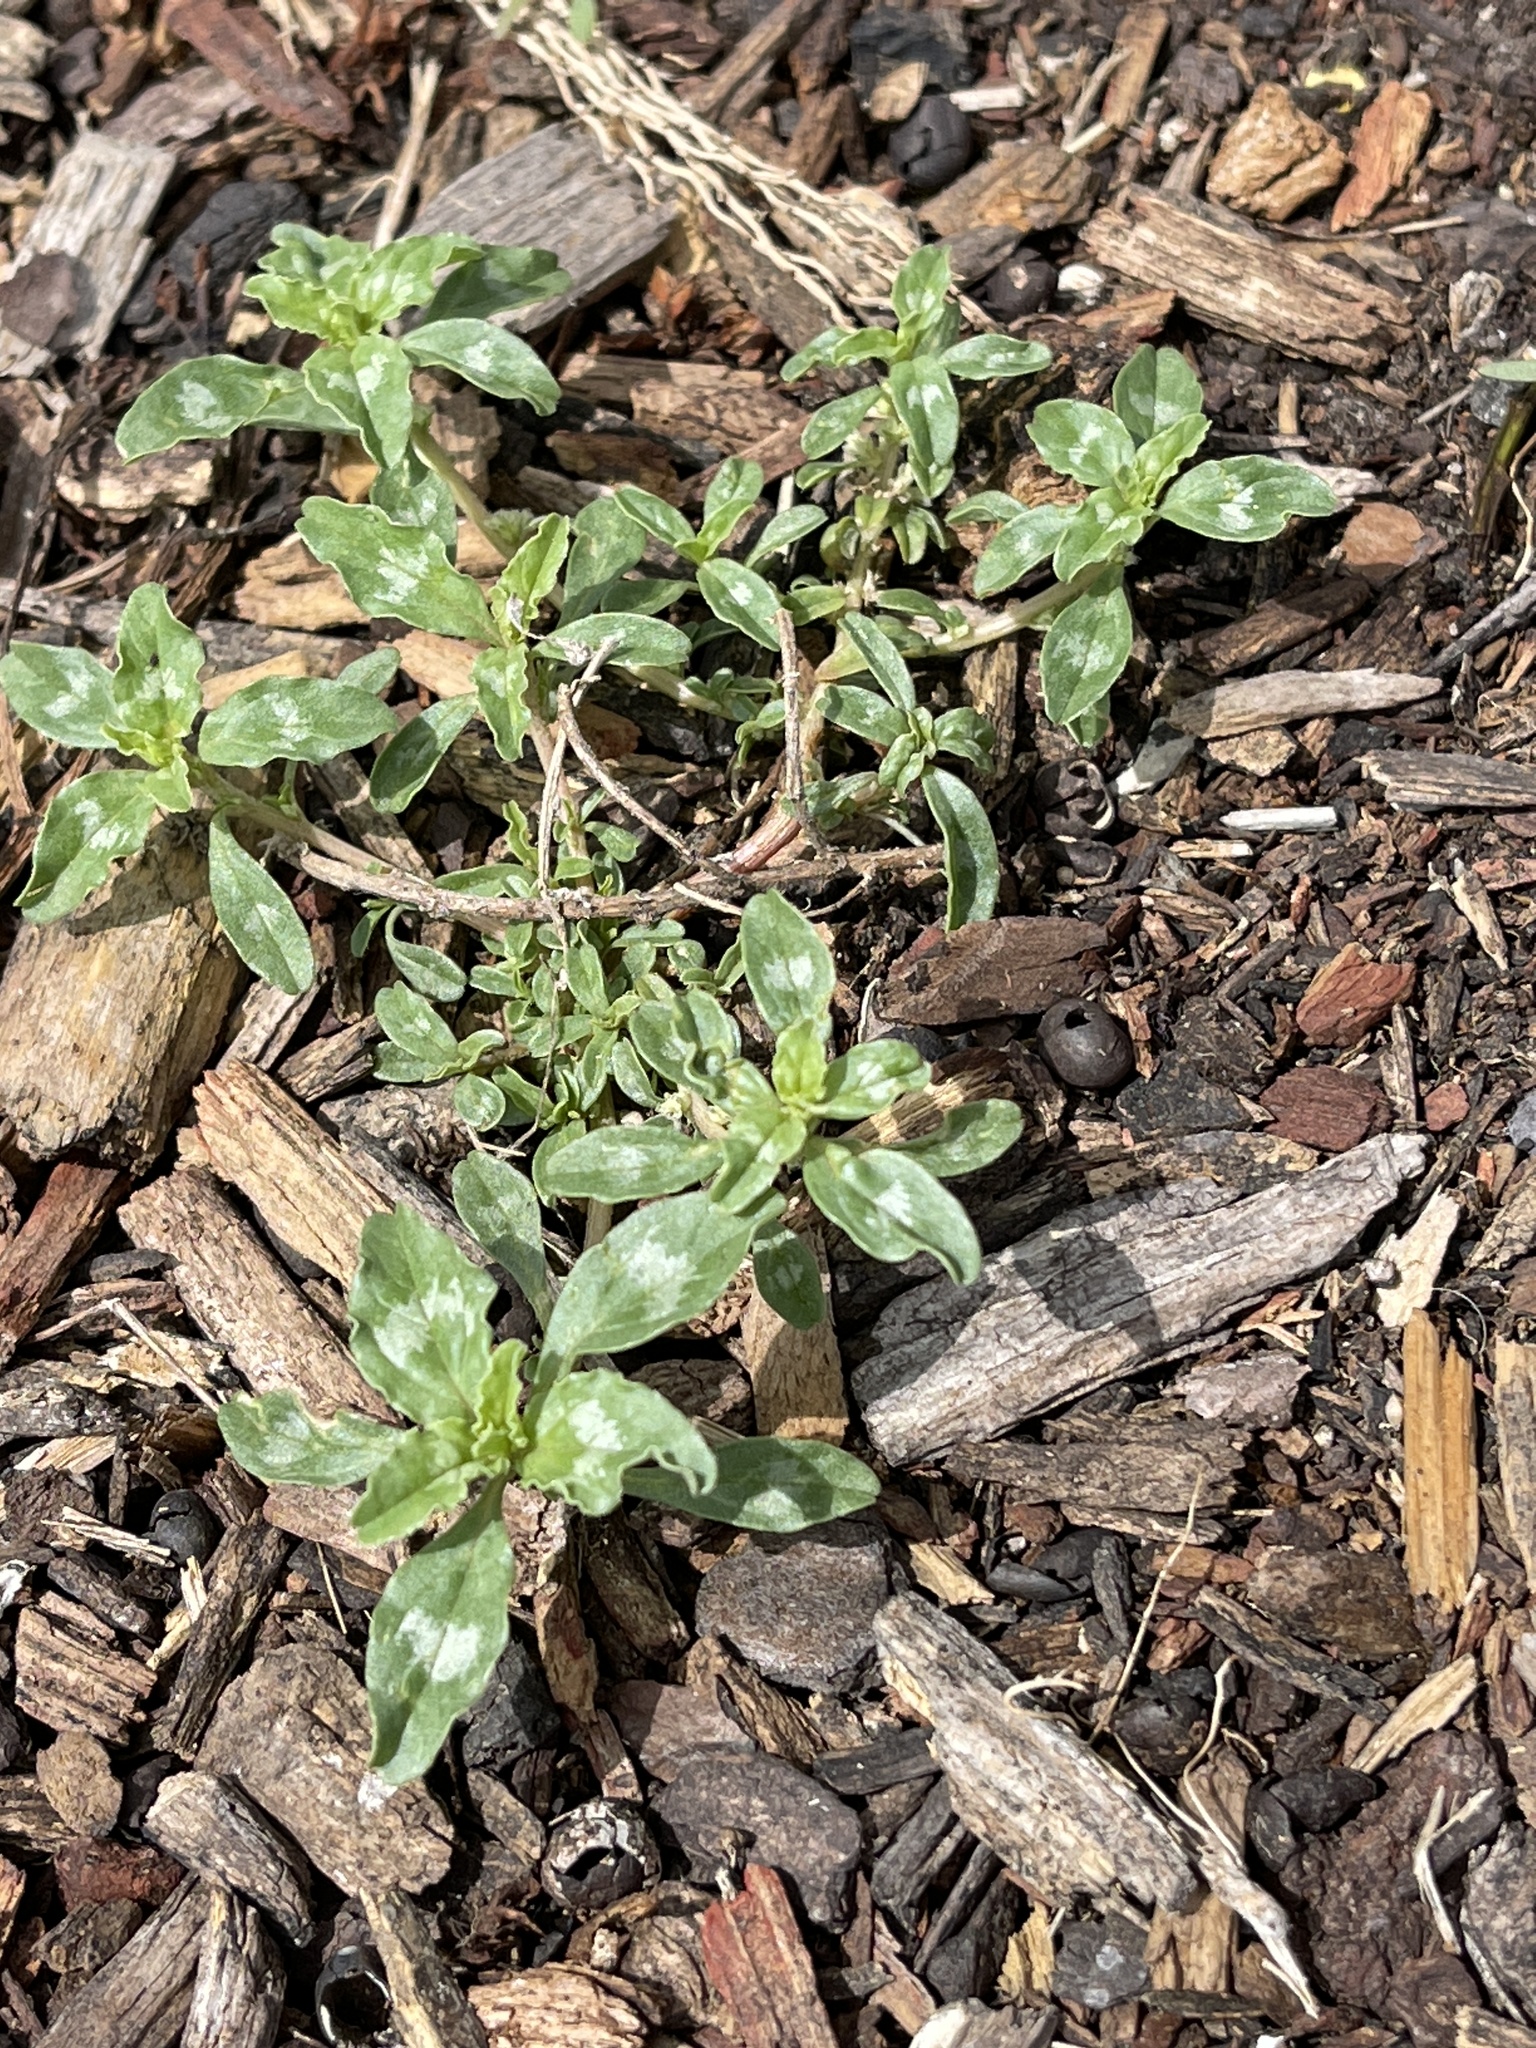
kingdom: Plantae
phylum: Tracheophyta
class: Magnoliopsida
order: Caryophyllales
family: Amaranthaceae
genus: Amaranthus
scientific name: Amaranthus polygonoides
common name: Tropical amaranth
